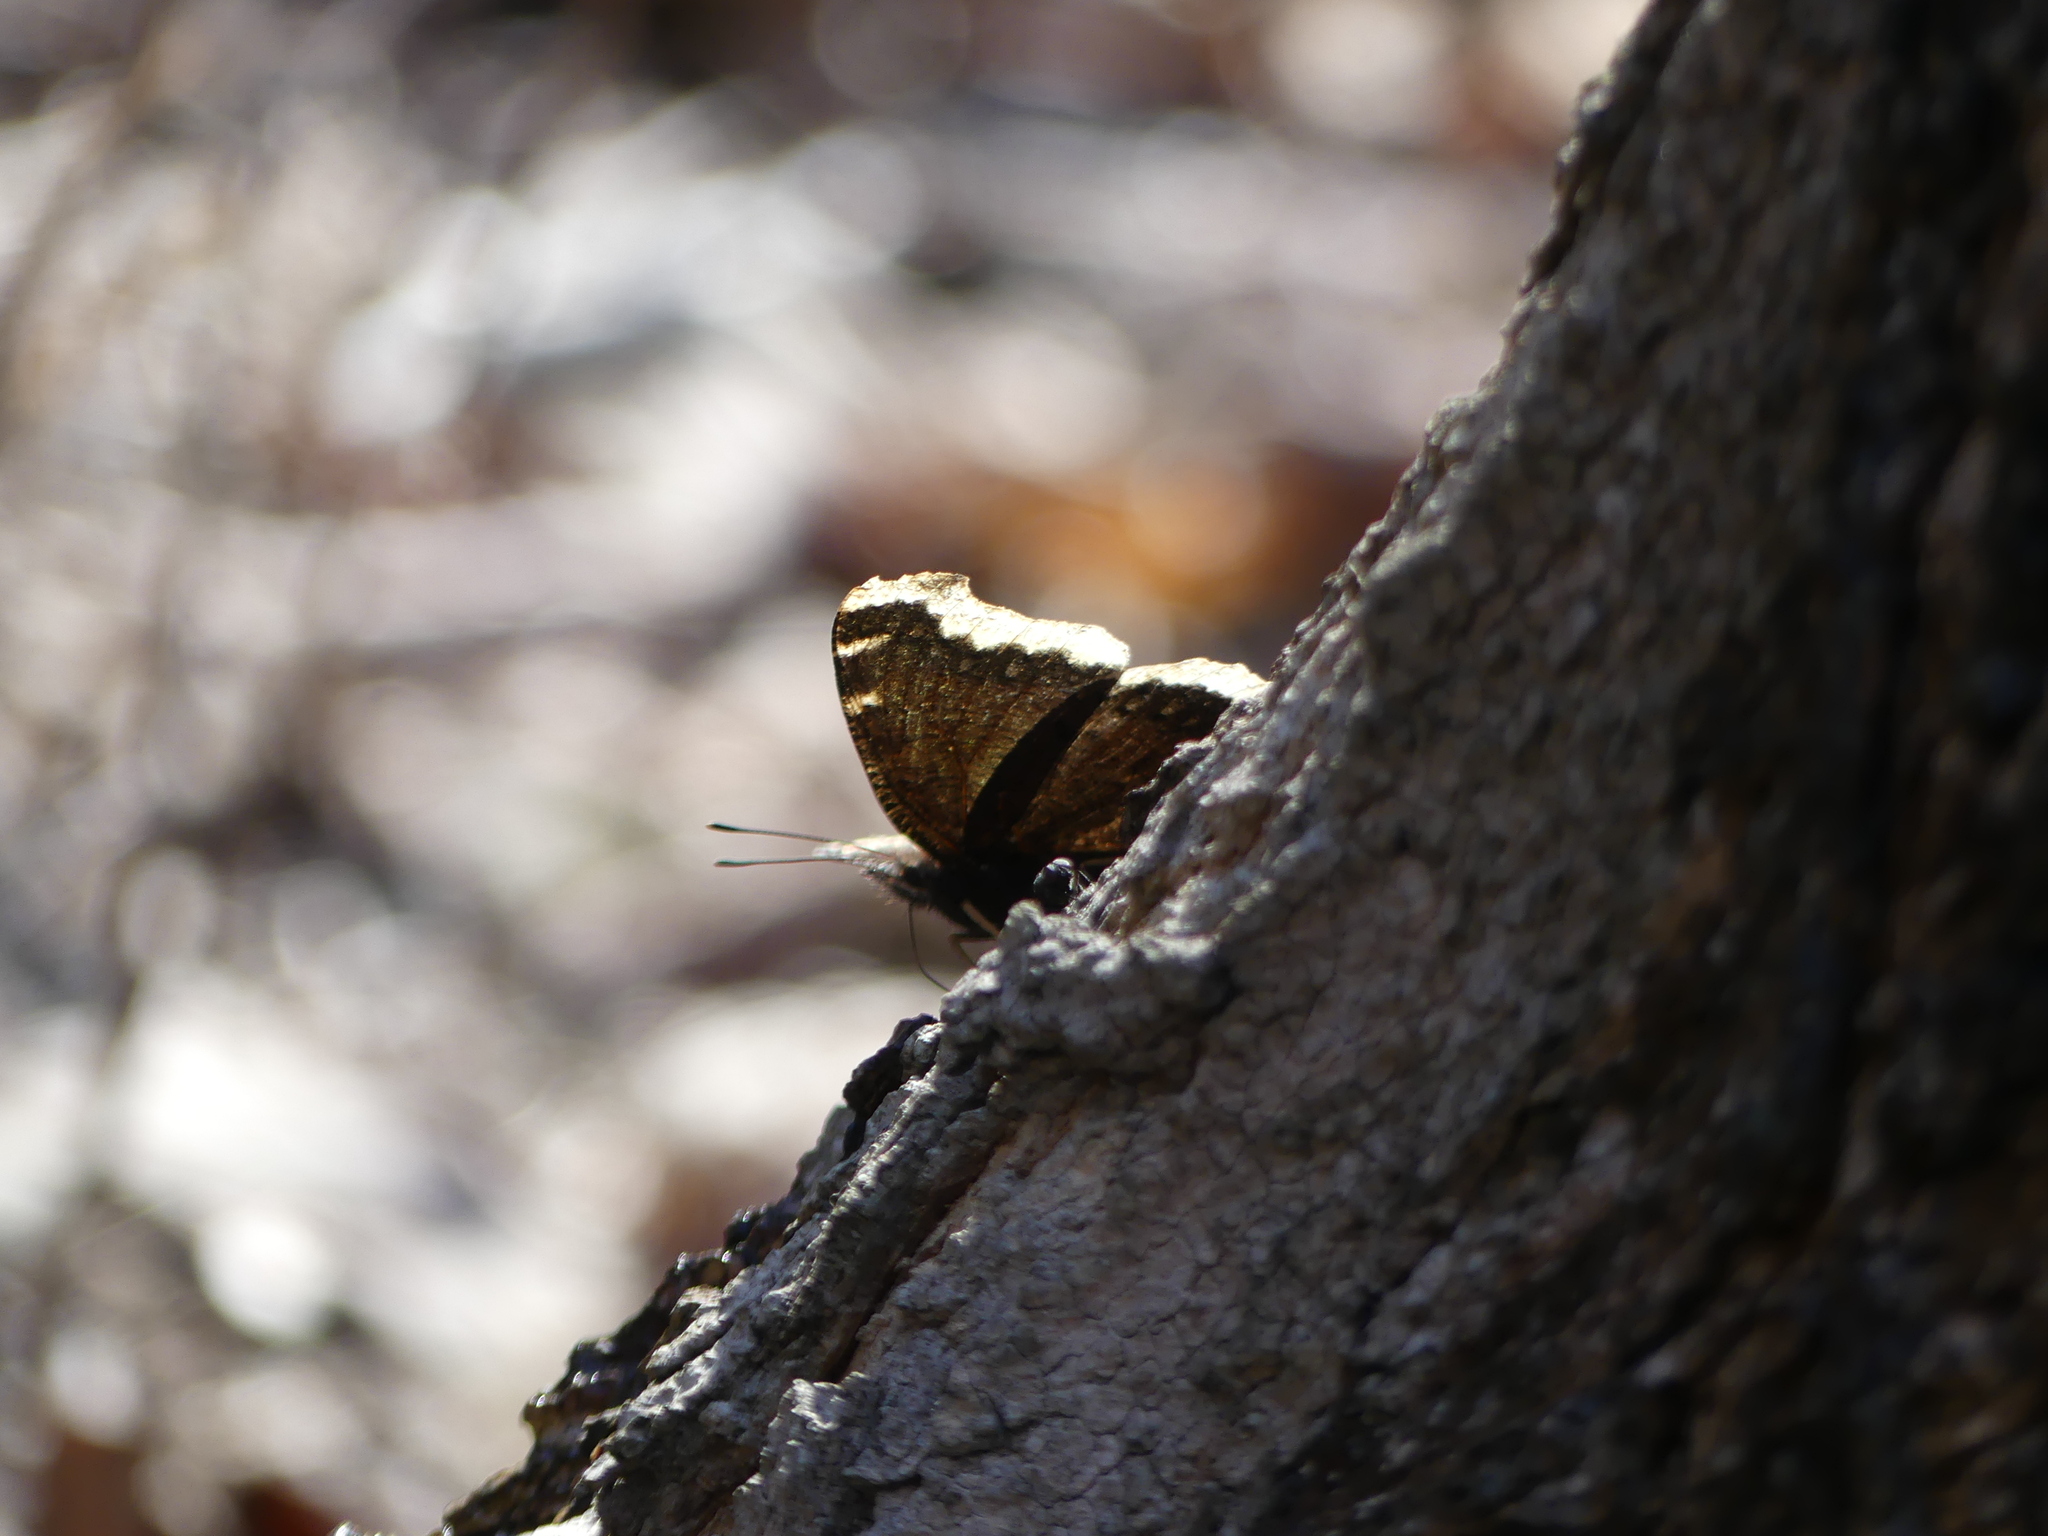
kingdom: Animalia
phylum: Arthropoda
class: Insecta
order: Lepidoptera
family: Nymphalidae
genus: Nymphalis
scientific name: Nymphalis antiopa
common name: Camberwell beauty
